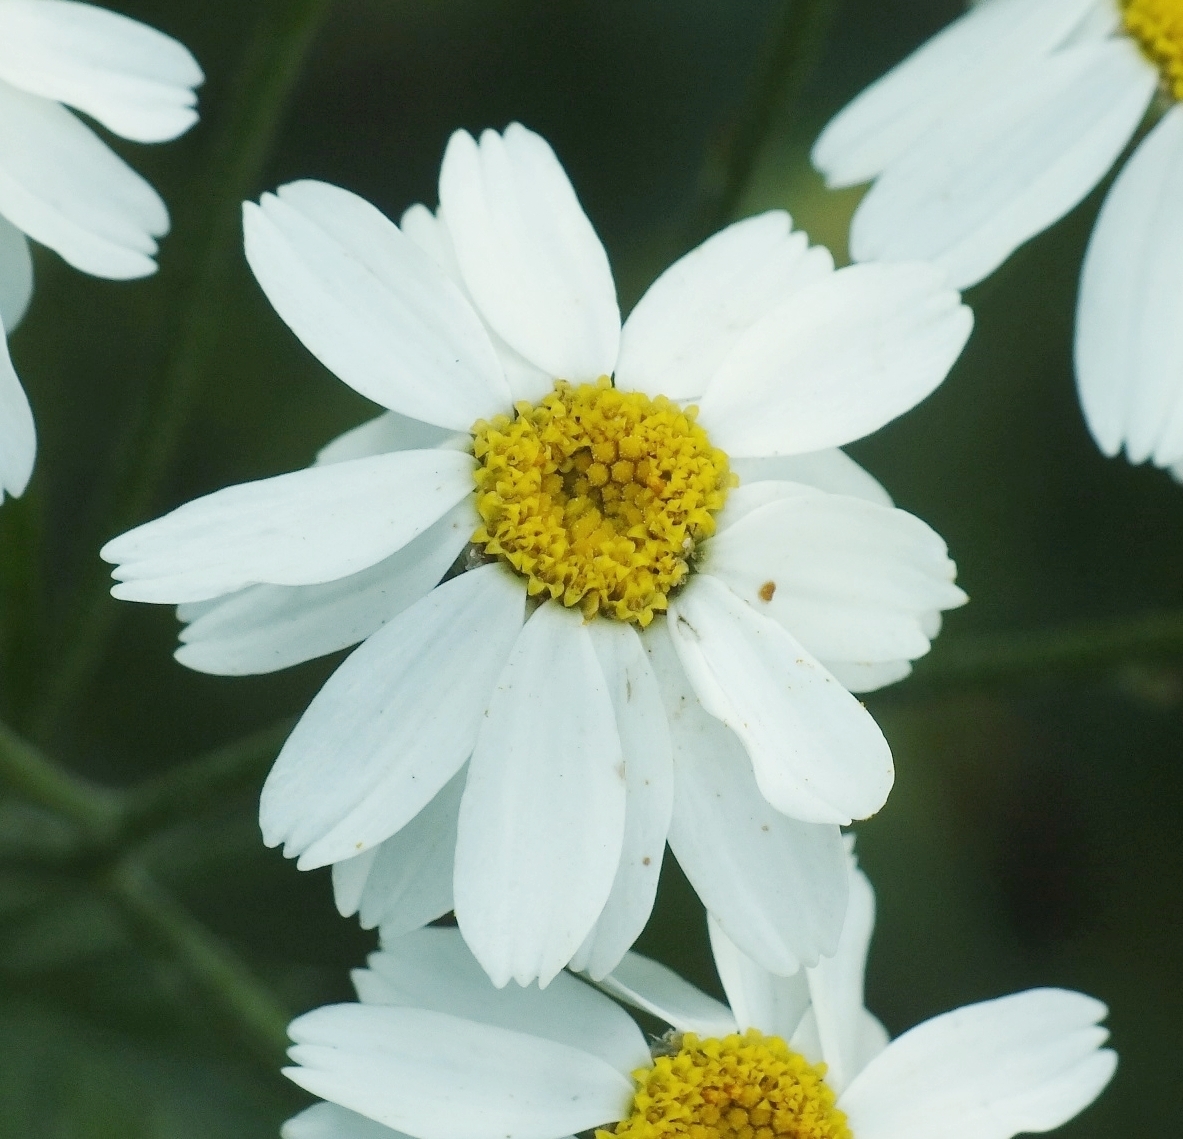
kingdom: Plantae
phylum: Tracheophyta
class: Magnoliopsida
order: Asterales
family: Asteraceae
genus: Tanacetum
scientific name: Tanacetum corymbosum
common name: Scentless feverfew
